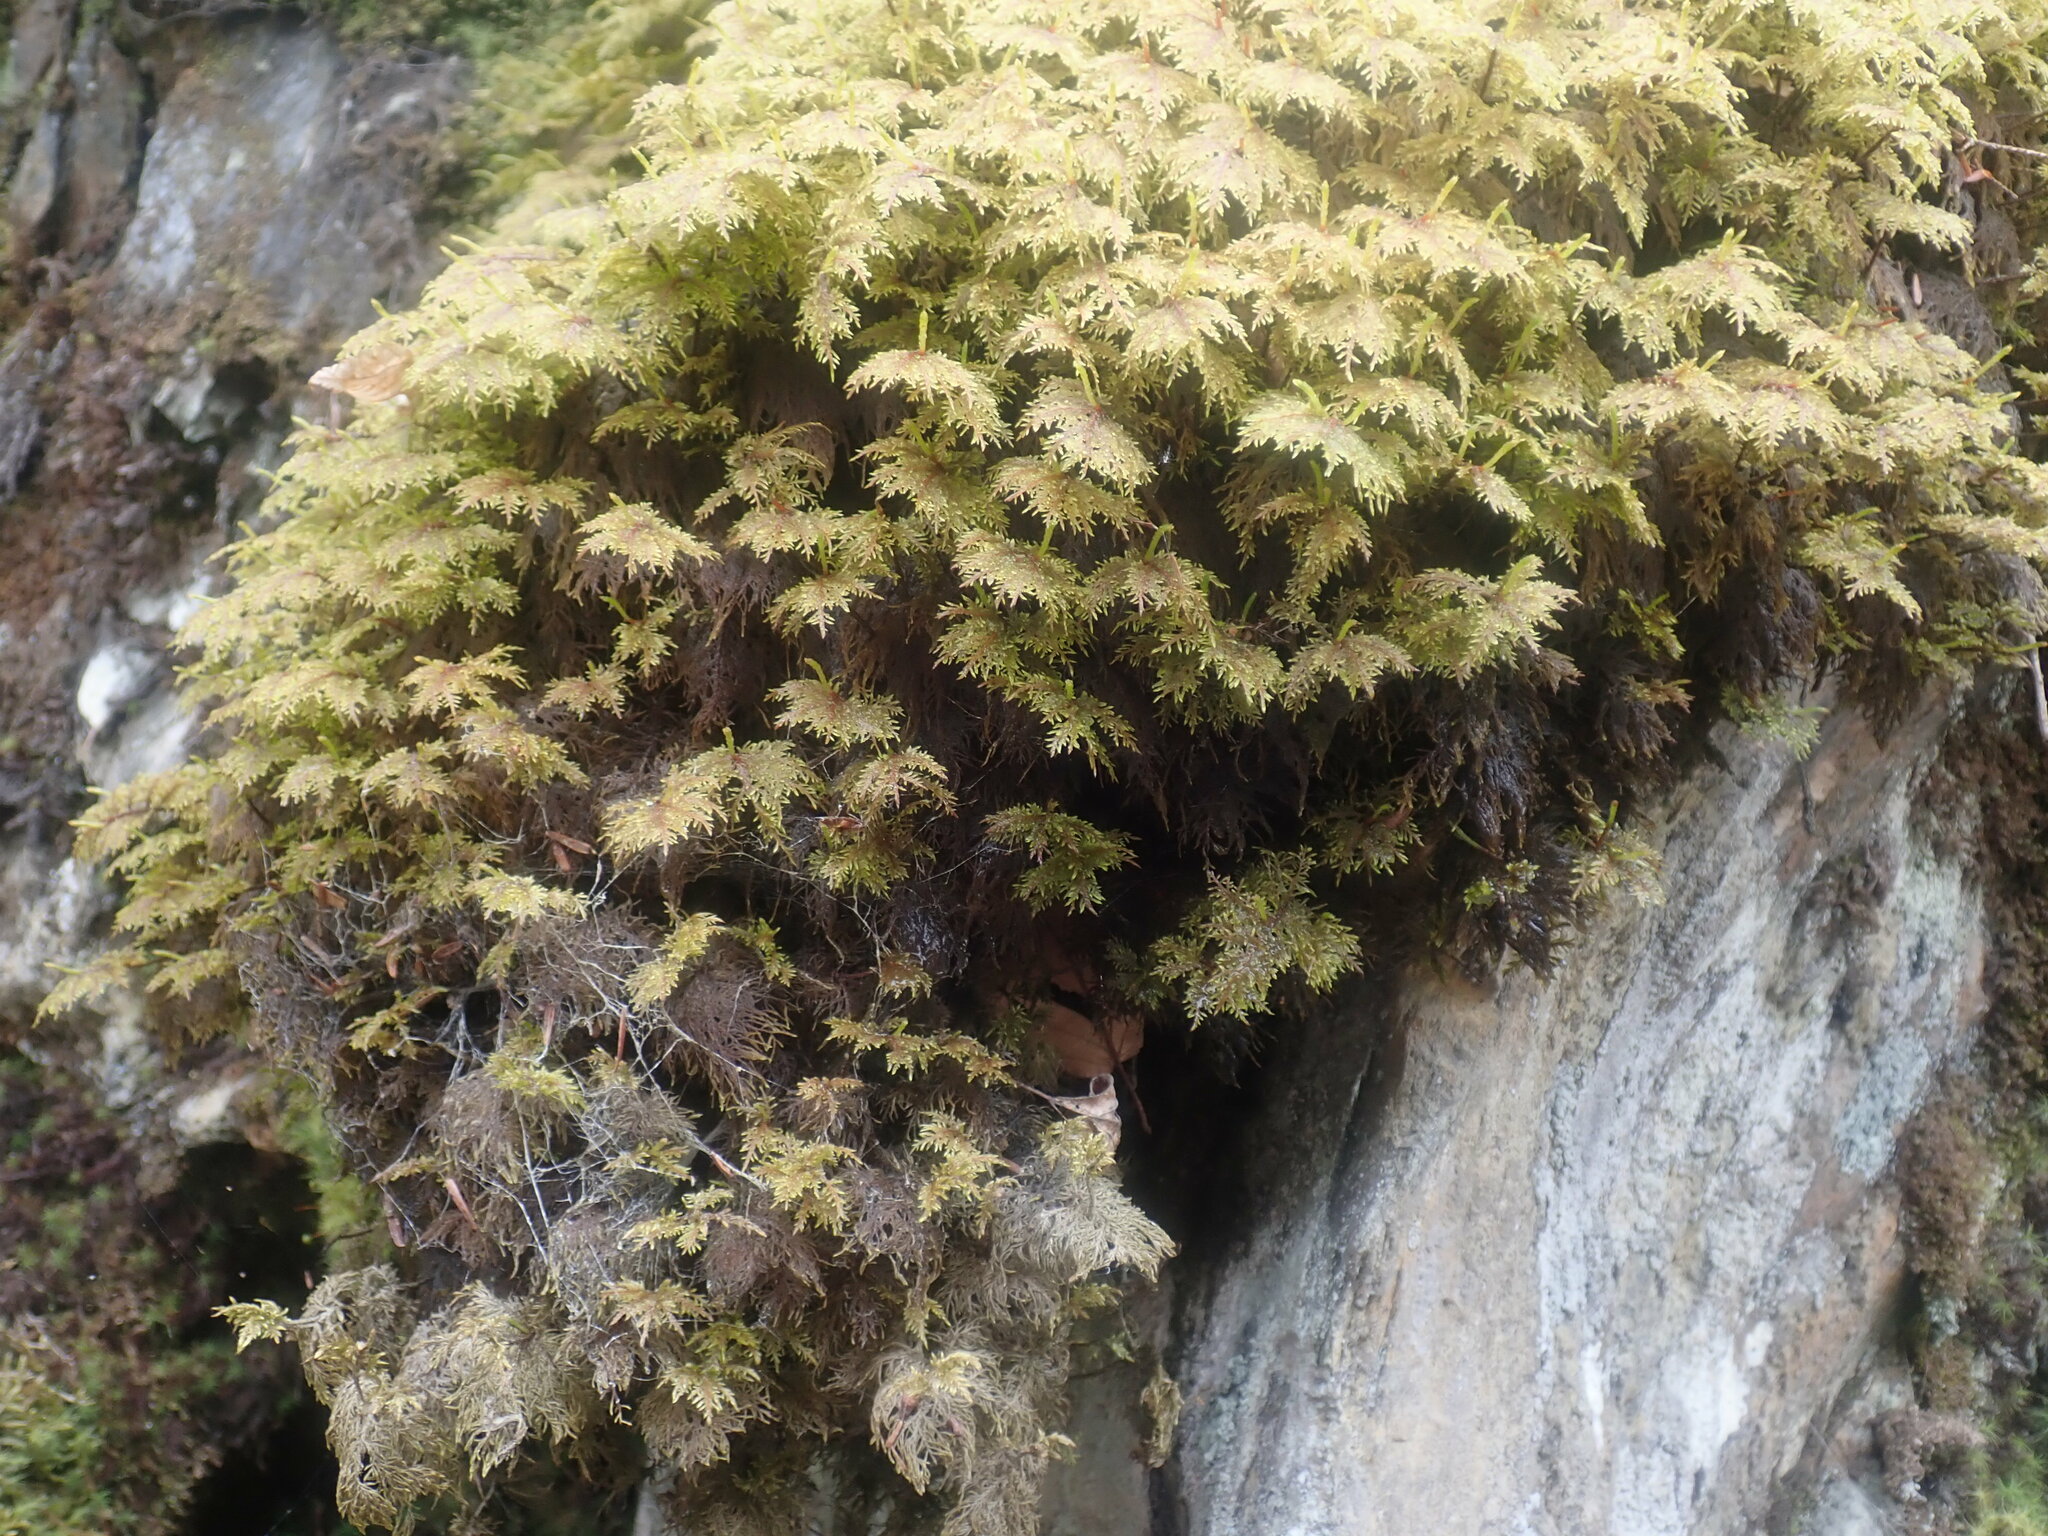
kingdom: Plantae
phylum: Bryophyta
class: Bryopsida
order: Hypnales
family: Hylocomiaceae
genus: Hylocomium
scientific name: Hylocomium splendens
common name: Stairstep moss
